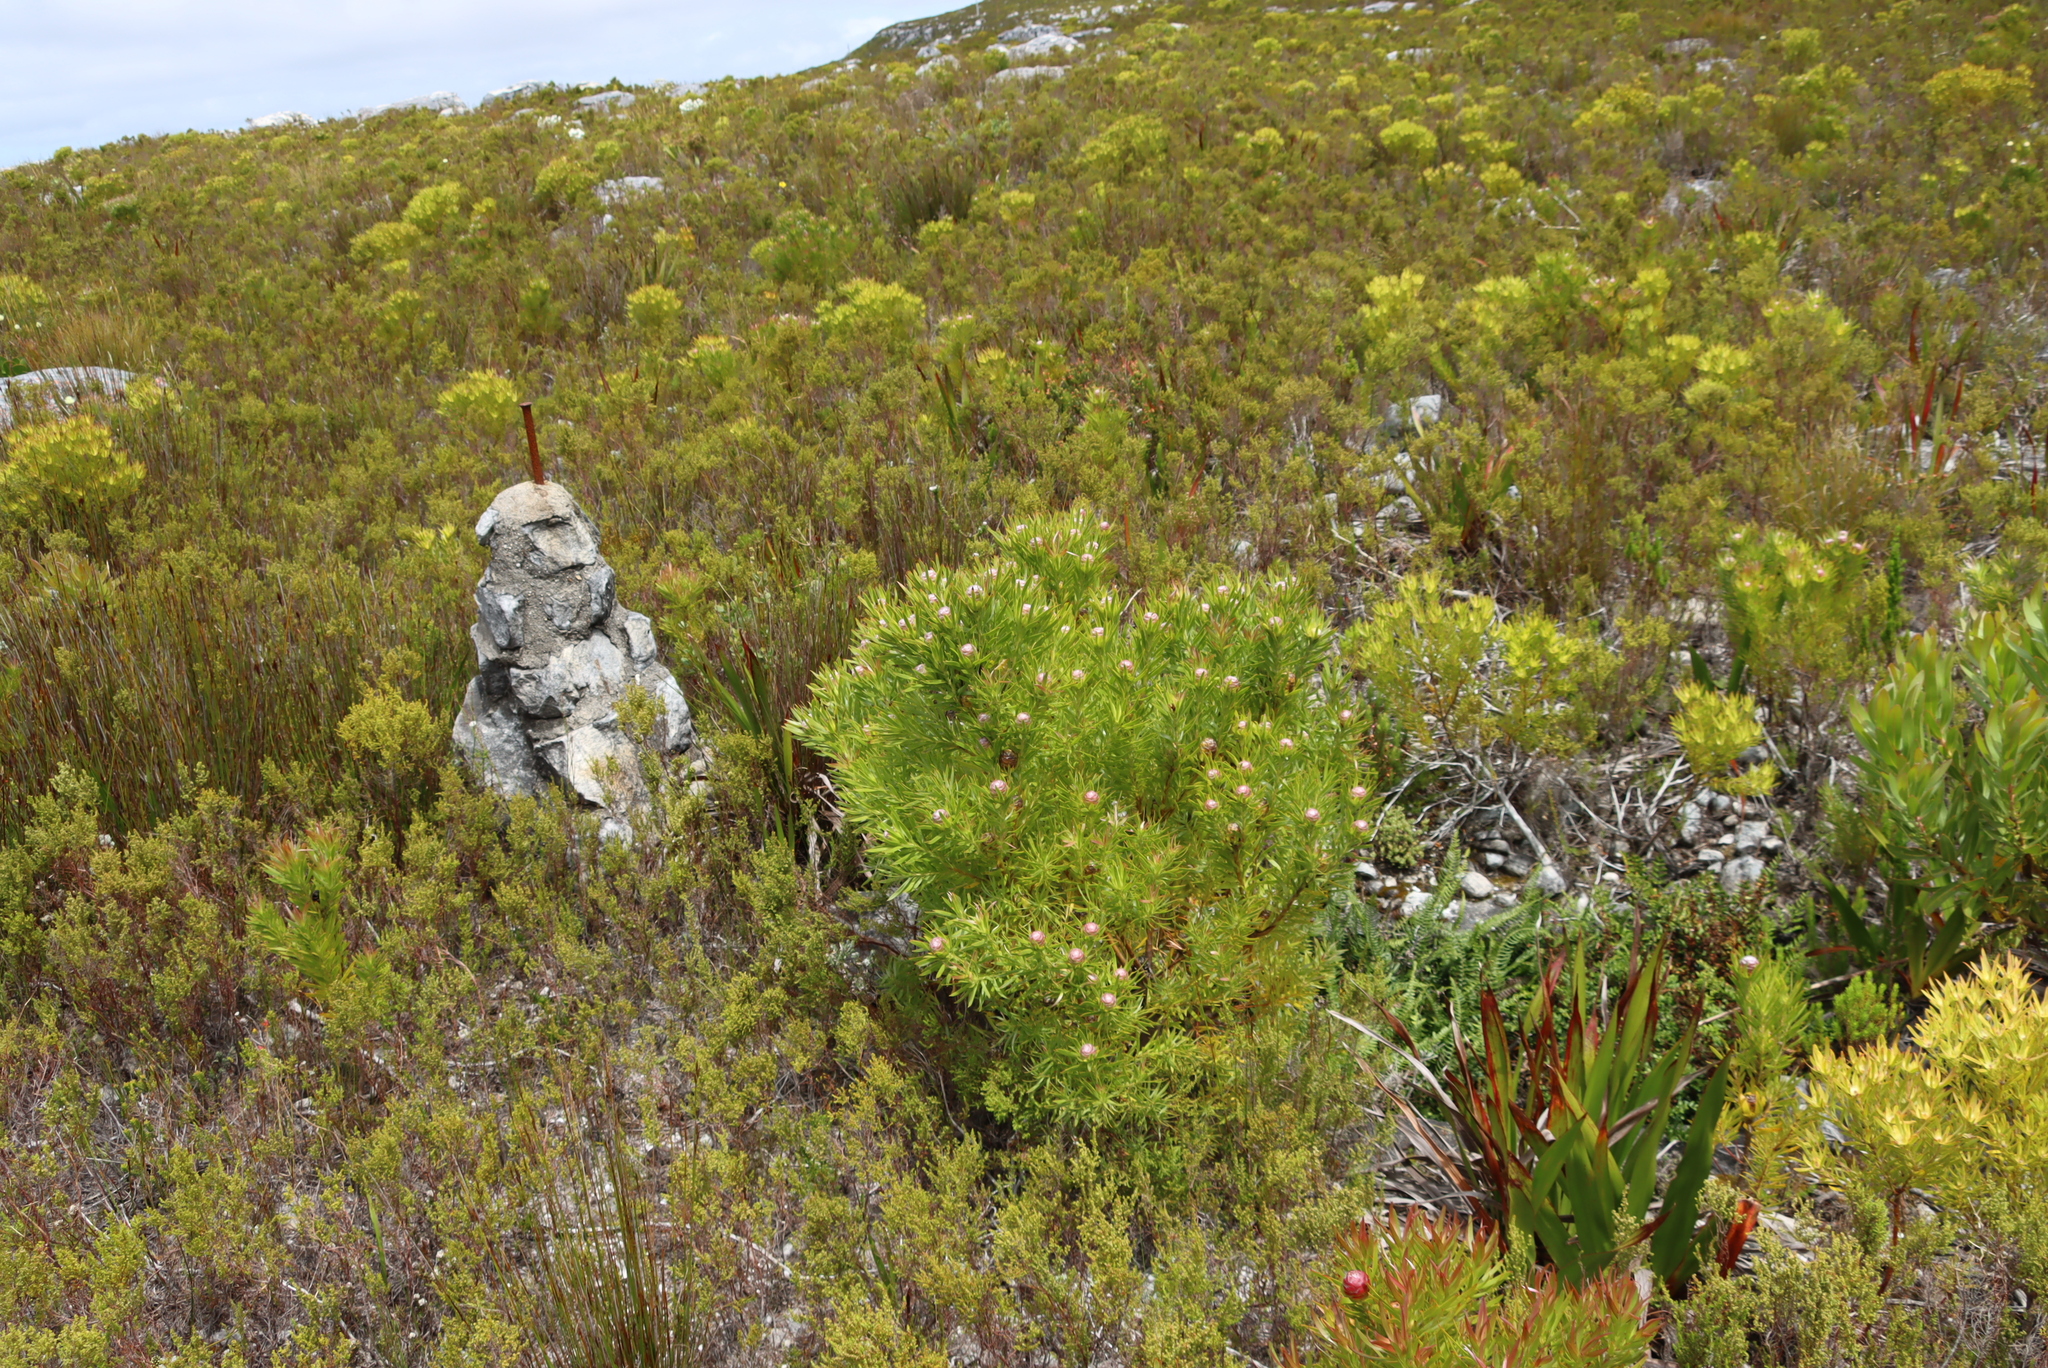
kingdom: Plantae
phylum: Tracheophyta
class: Magnoliopsida
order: Proteales
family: Proteaceae
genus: Leucadendron
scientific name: Leucadendron xanthoconus
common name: Sickle-leaf conebush
